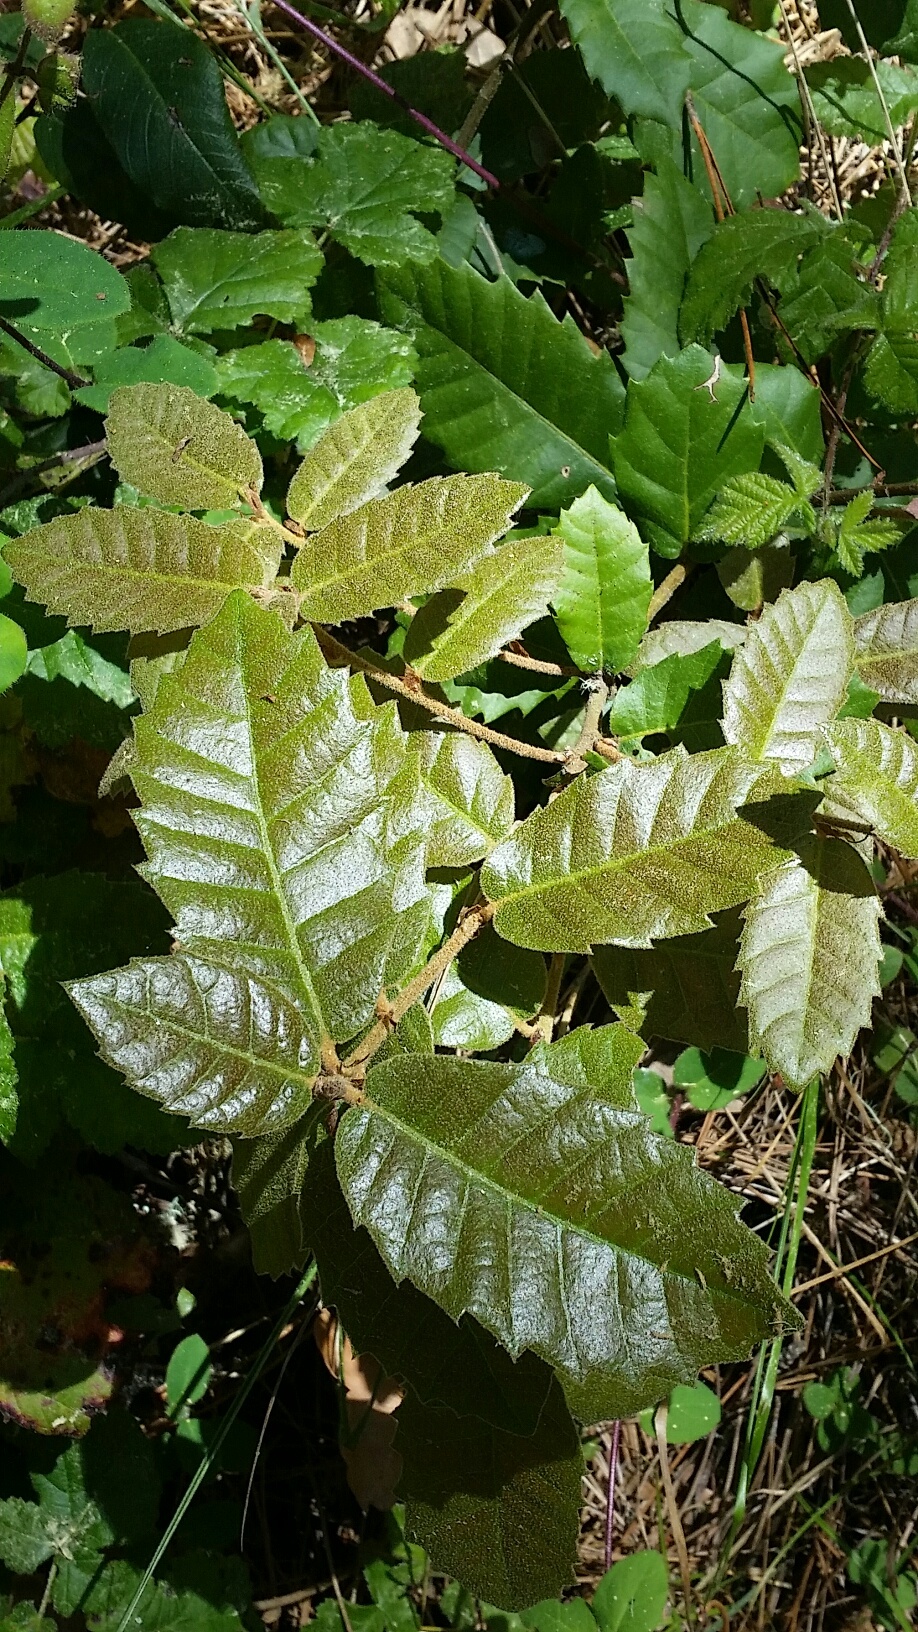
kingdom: Plantae
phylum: Tracheophyta
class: Magnoliopsida
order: Fagales
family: Fagaceae
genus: Notholithocarpus
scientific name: Notholithocarpus densiflorus
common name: Tan bark oak
